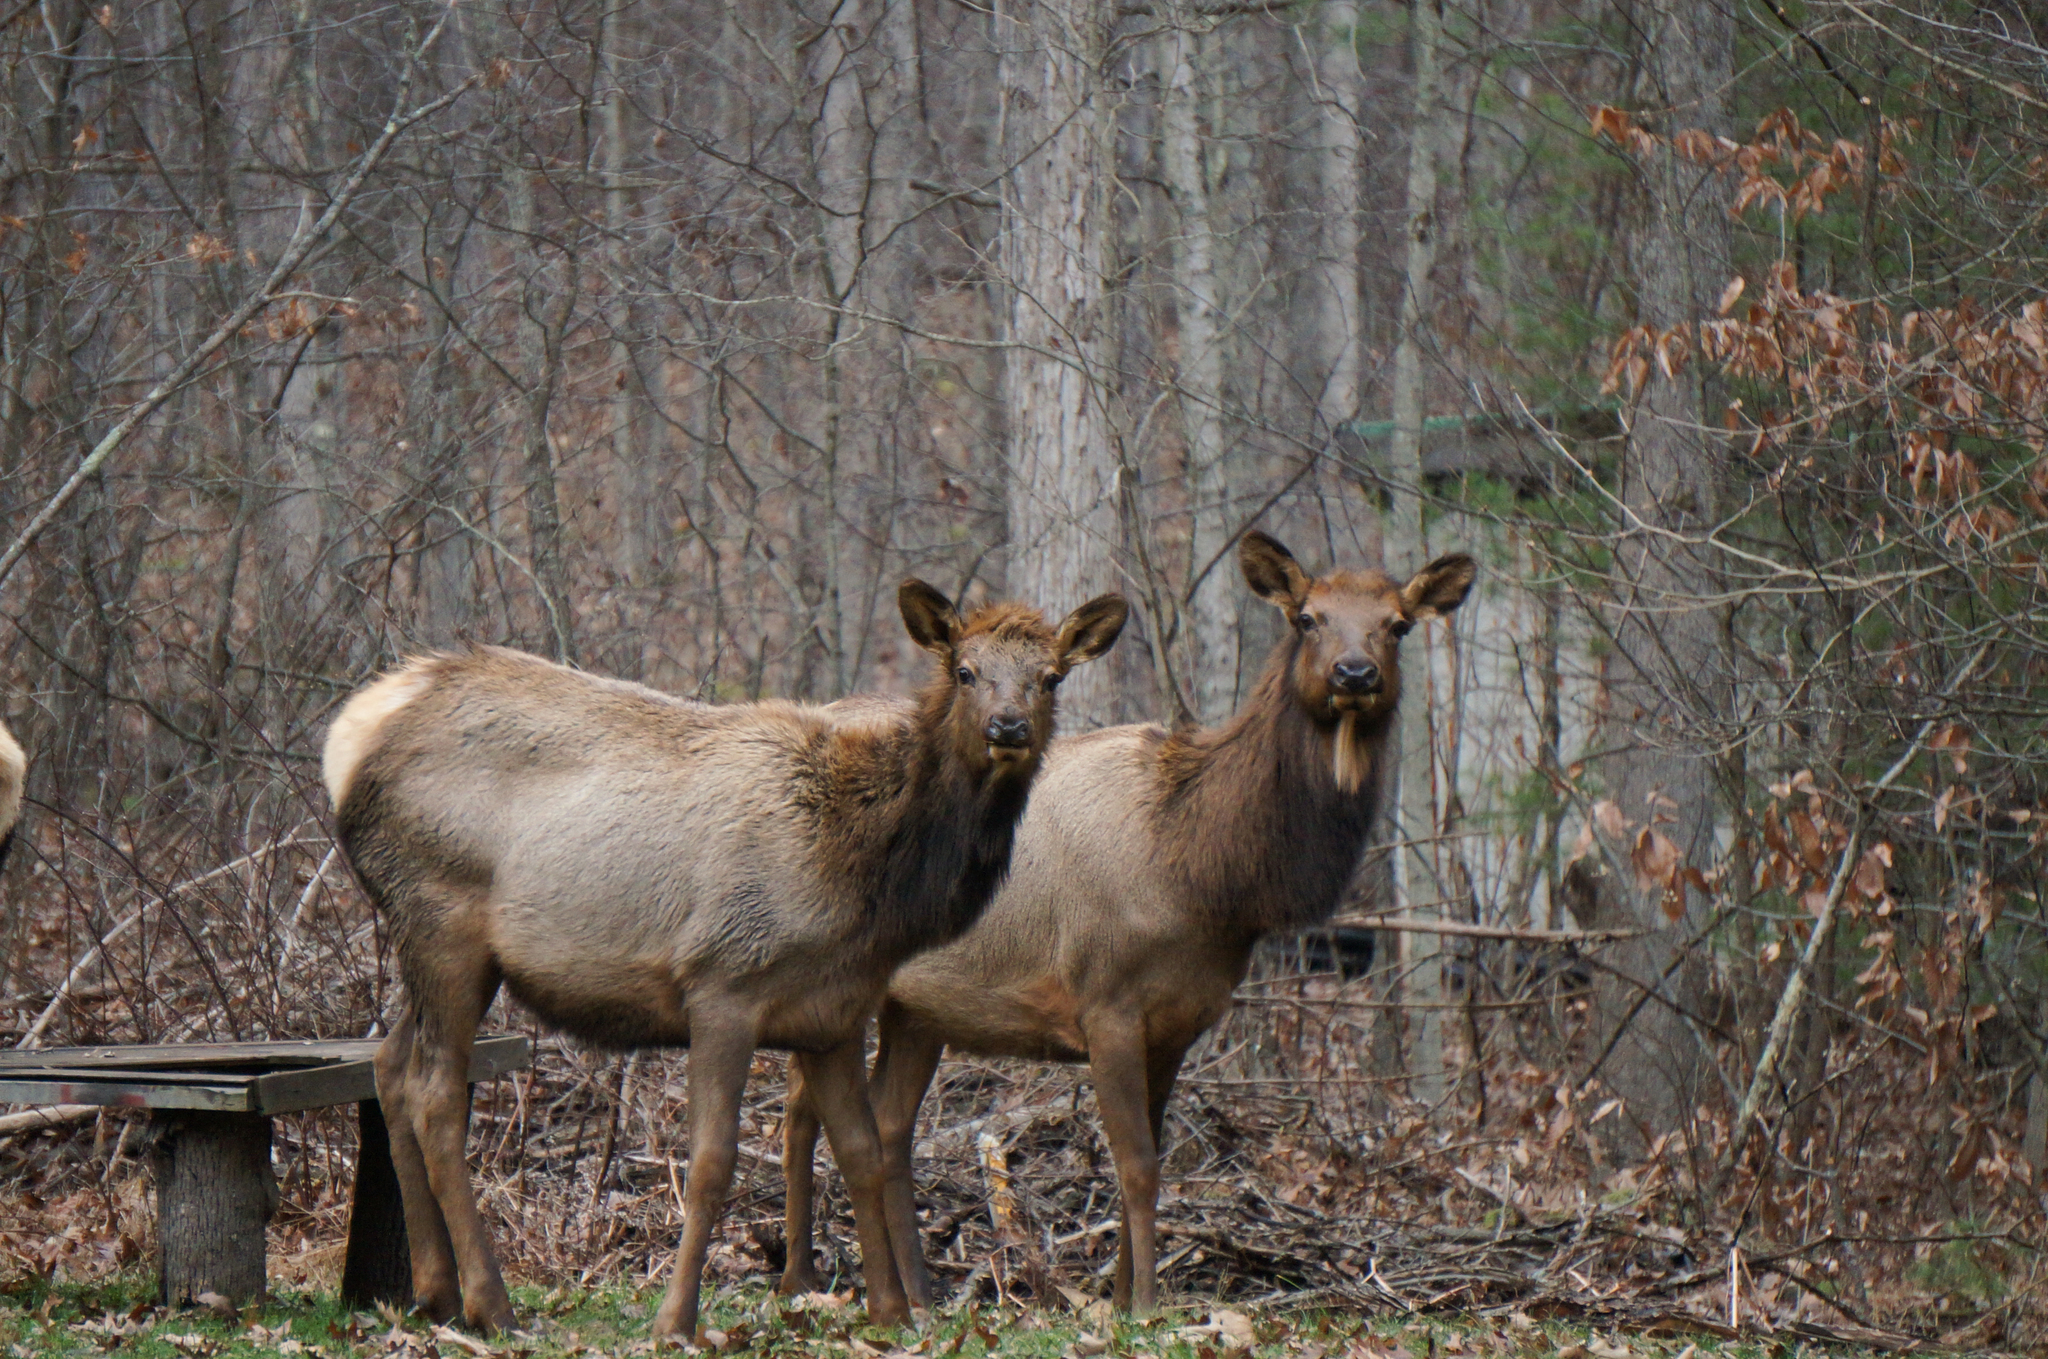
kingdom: Animalia
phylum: Chordata
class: Mammalia
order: Artiodactyla
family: Cervidae
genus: Cervus
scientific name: Cervus elaphus
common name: Red deer
